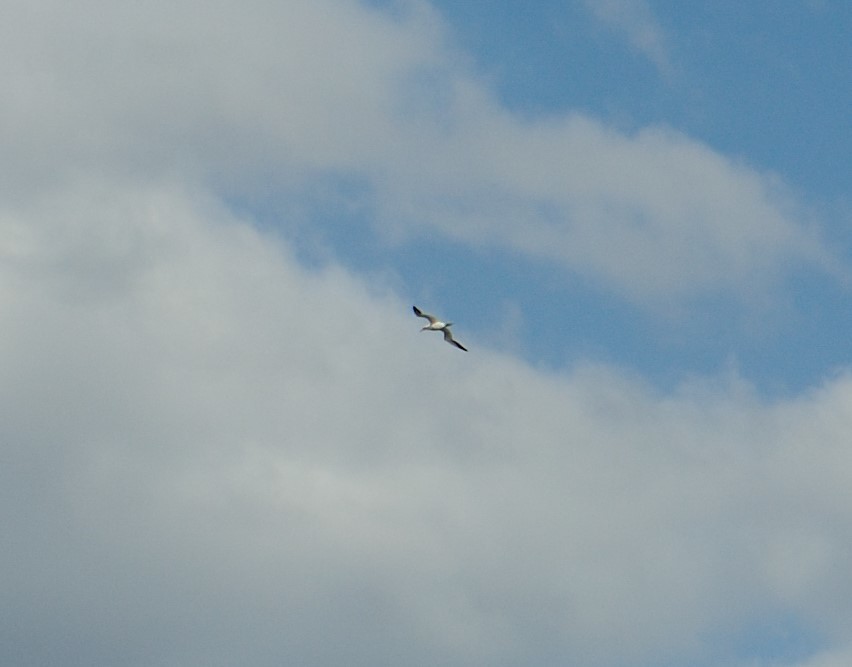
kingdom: Animalia
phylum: Chordata
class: Aves
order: Suliformes
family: Sulidae
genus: Morus
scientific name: Morus bassanus
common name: Northern gannet
